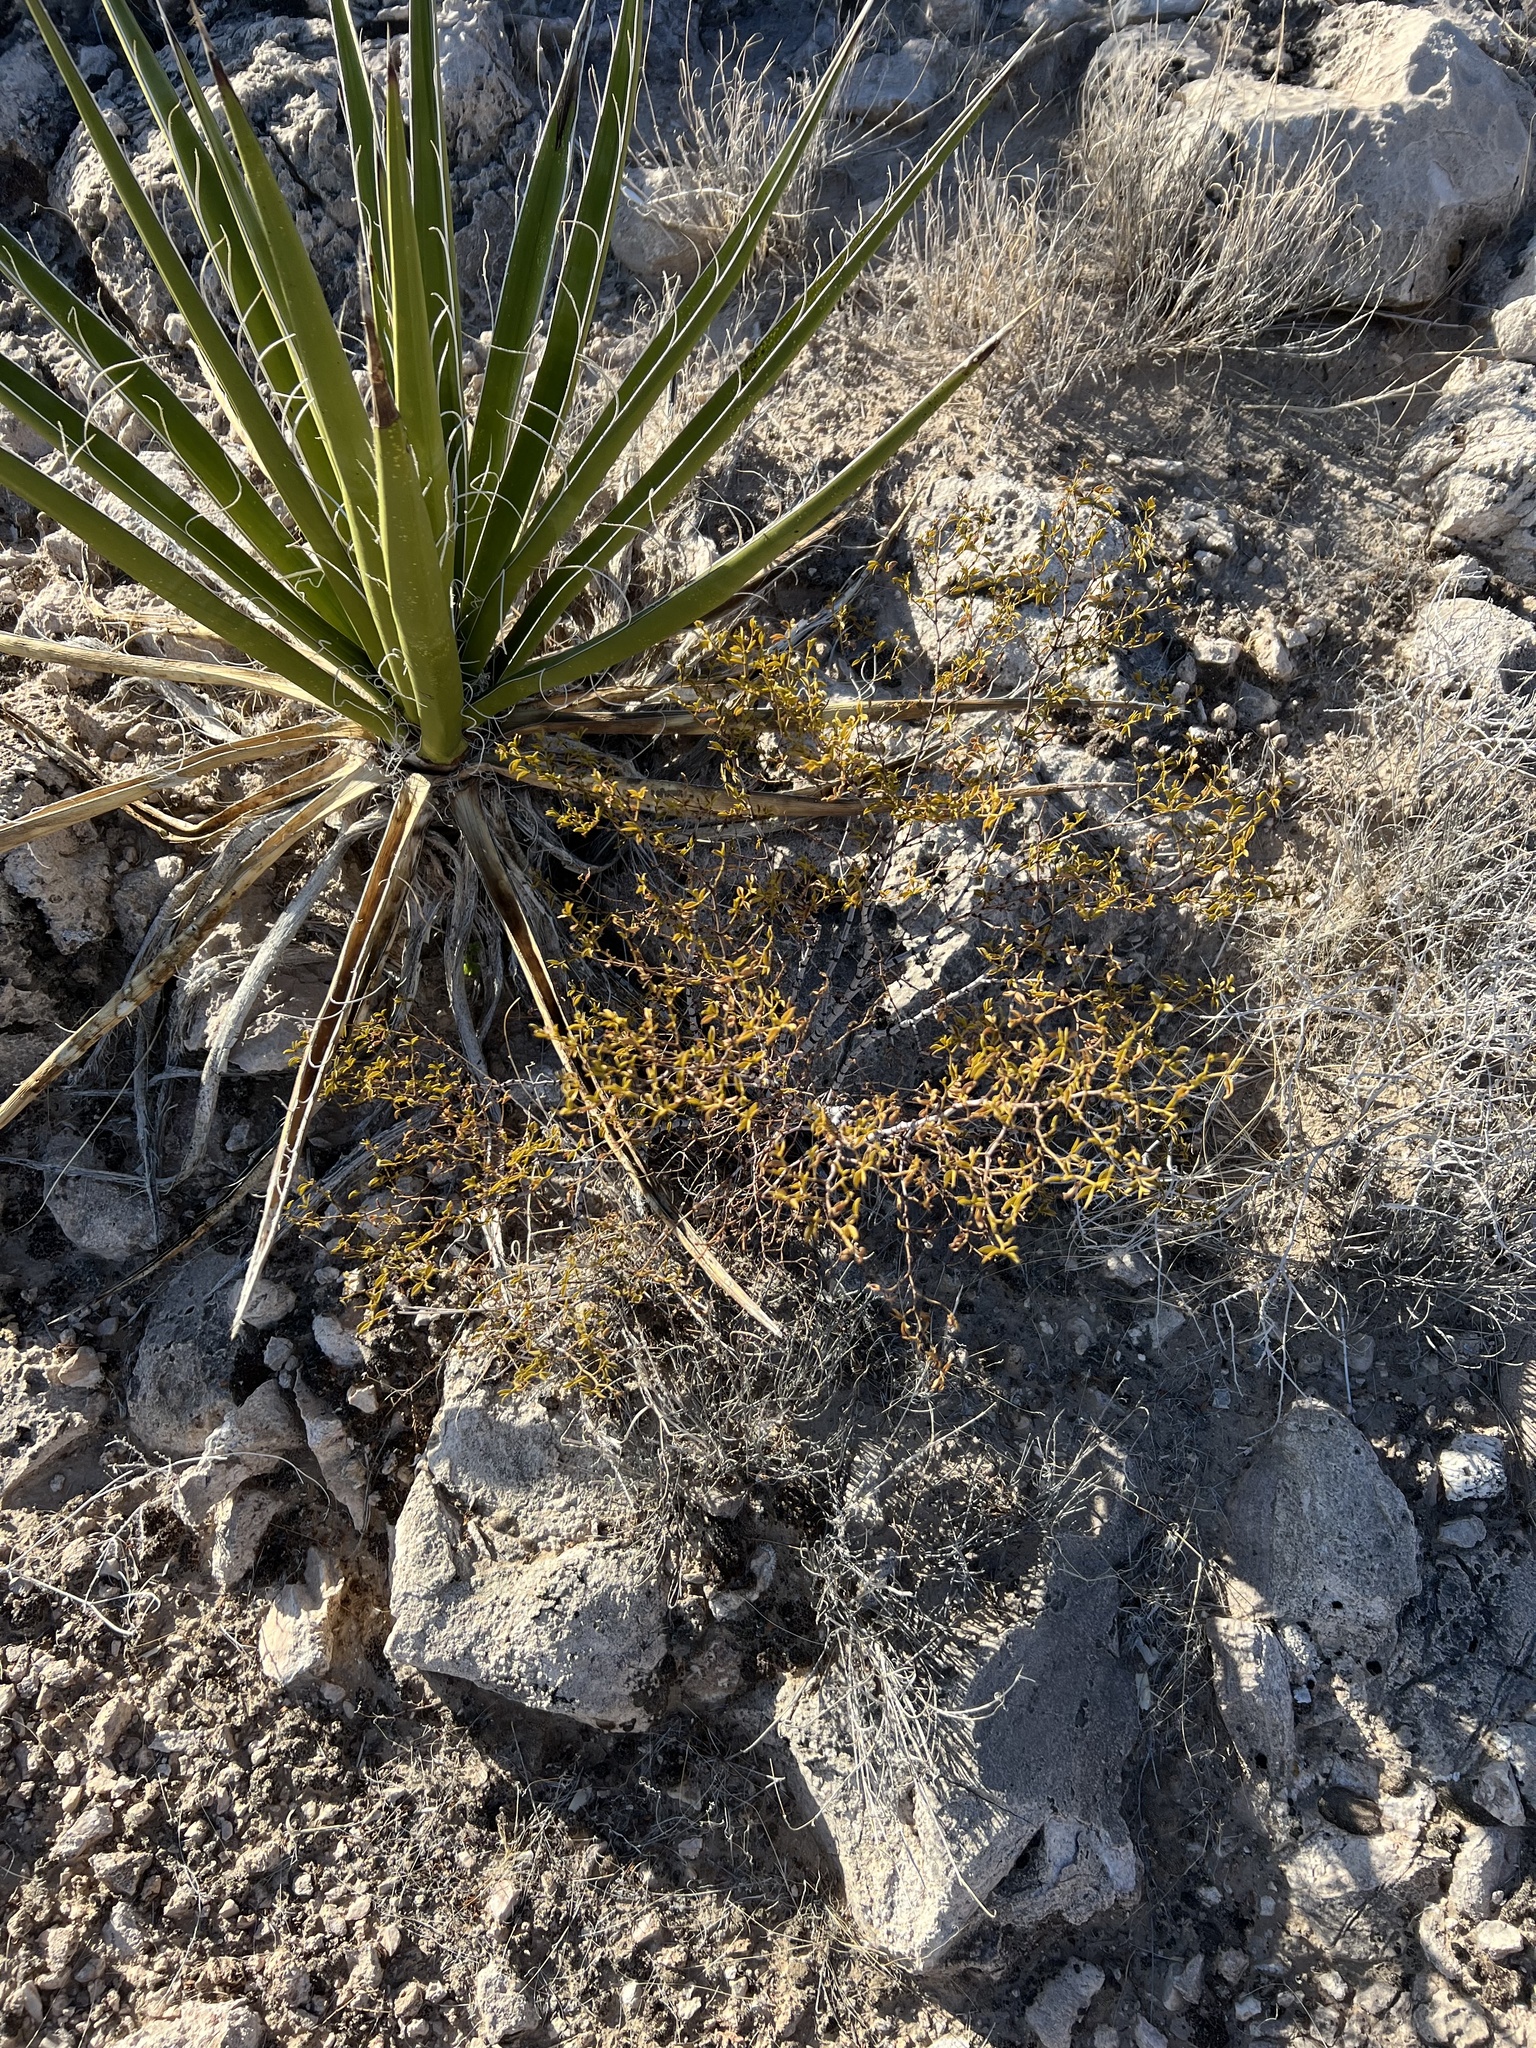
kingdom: Plantae
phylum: Tracheophyta
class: Magnoliopsida
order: Zygophyllales
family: Zygophyllaceae
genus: Larrea
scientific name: Larrea tridentata
